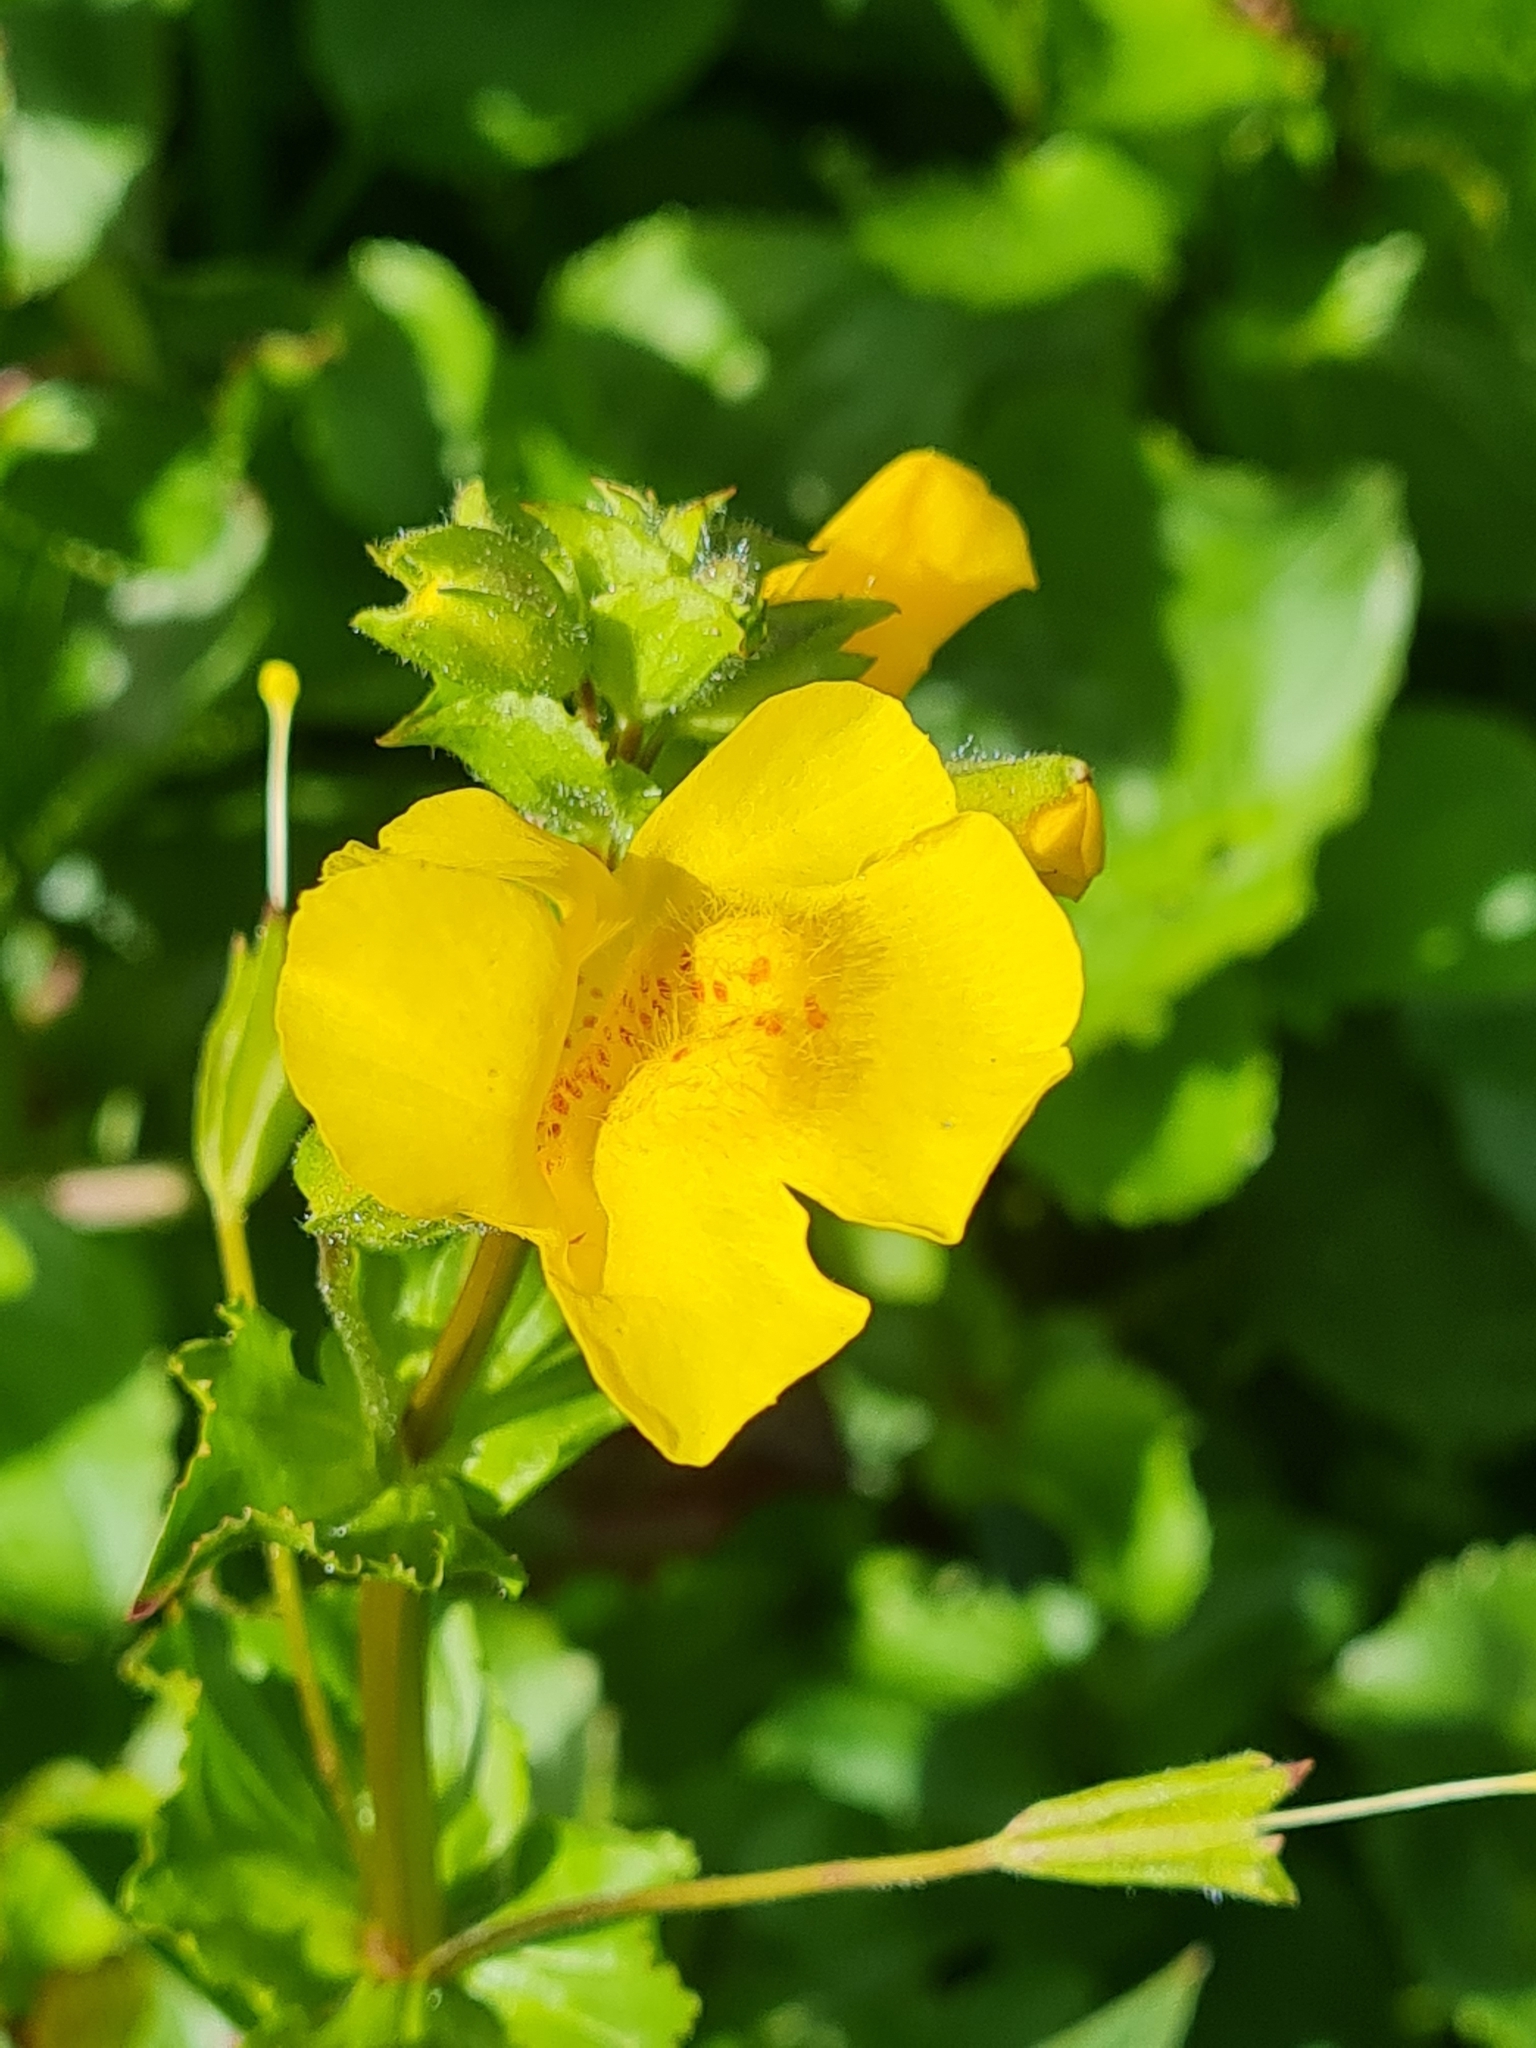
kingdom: Plantae
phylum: Tracheophyta
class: Magnoliopsida
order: Lamiales
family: Phrymaceae
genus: Erythranthe
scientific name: Erythranthe guttata
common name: Monkeyflower
